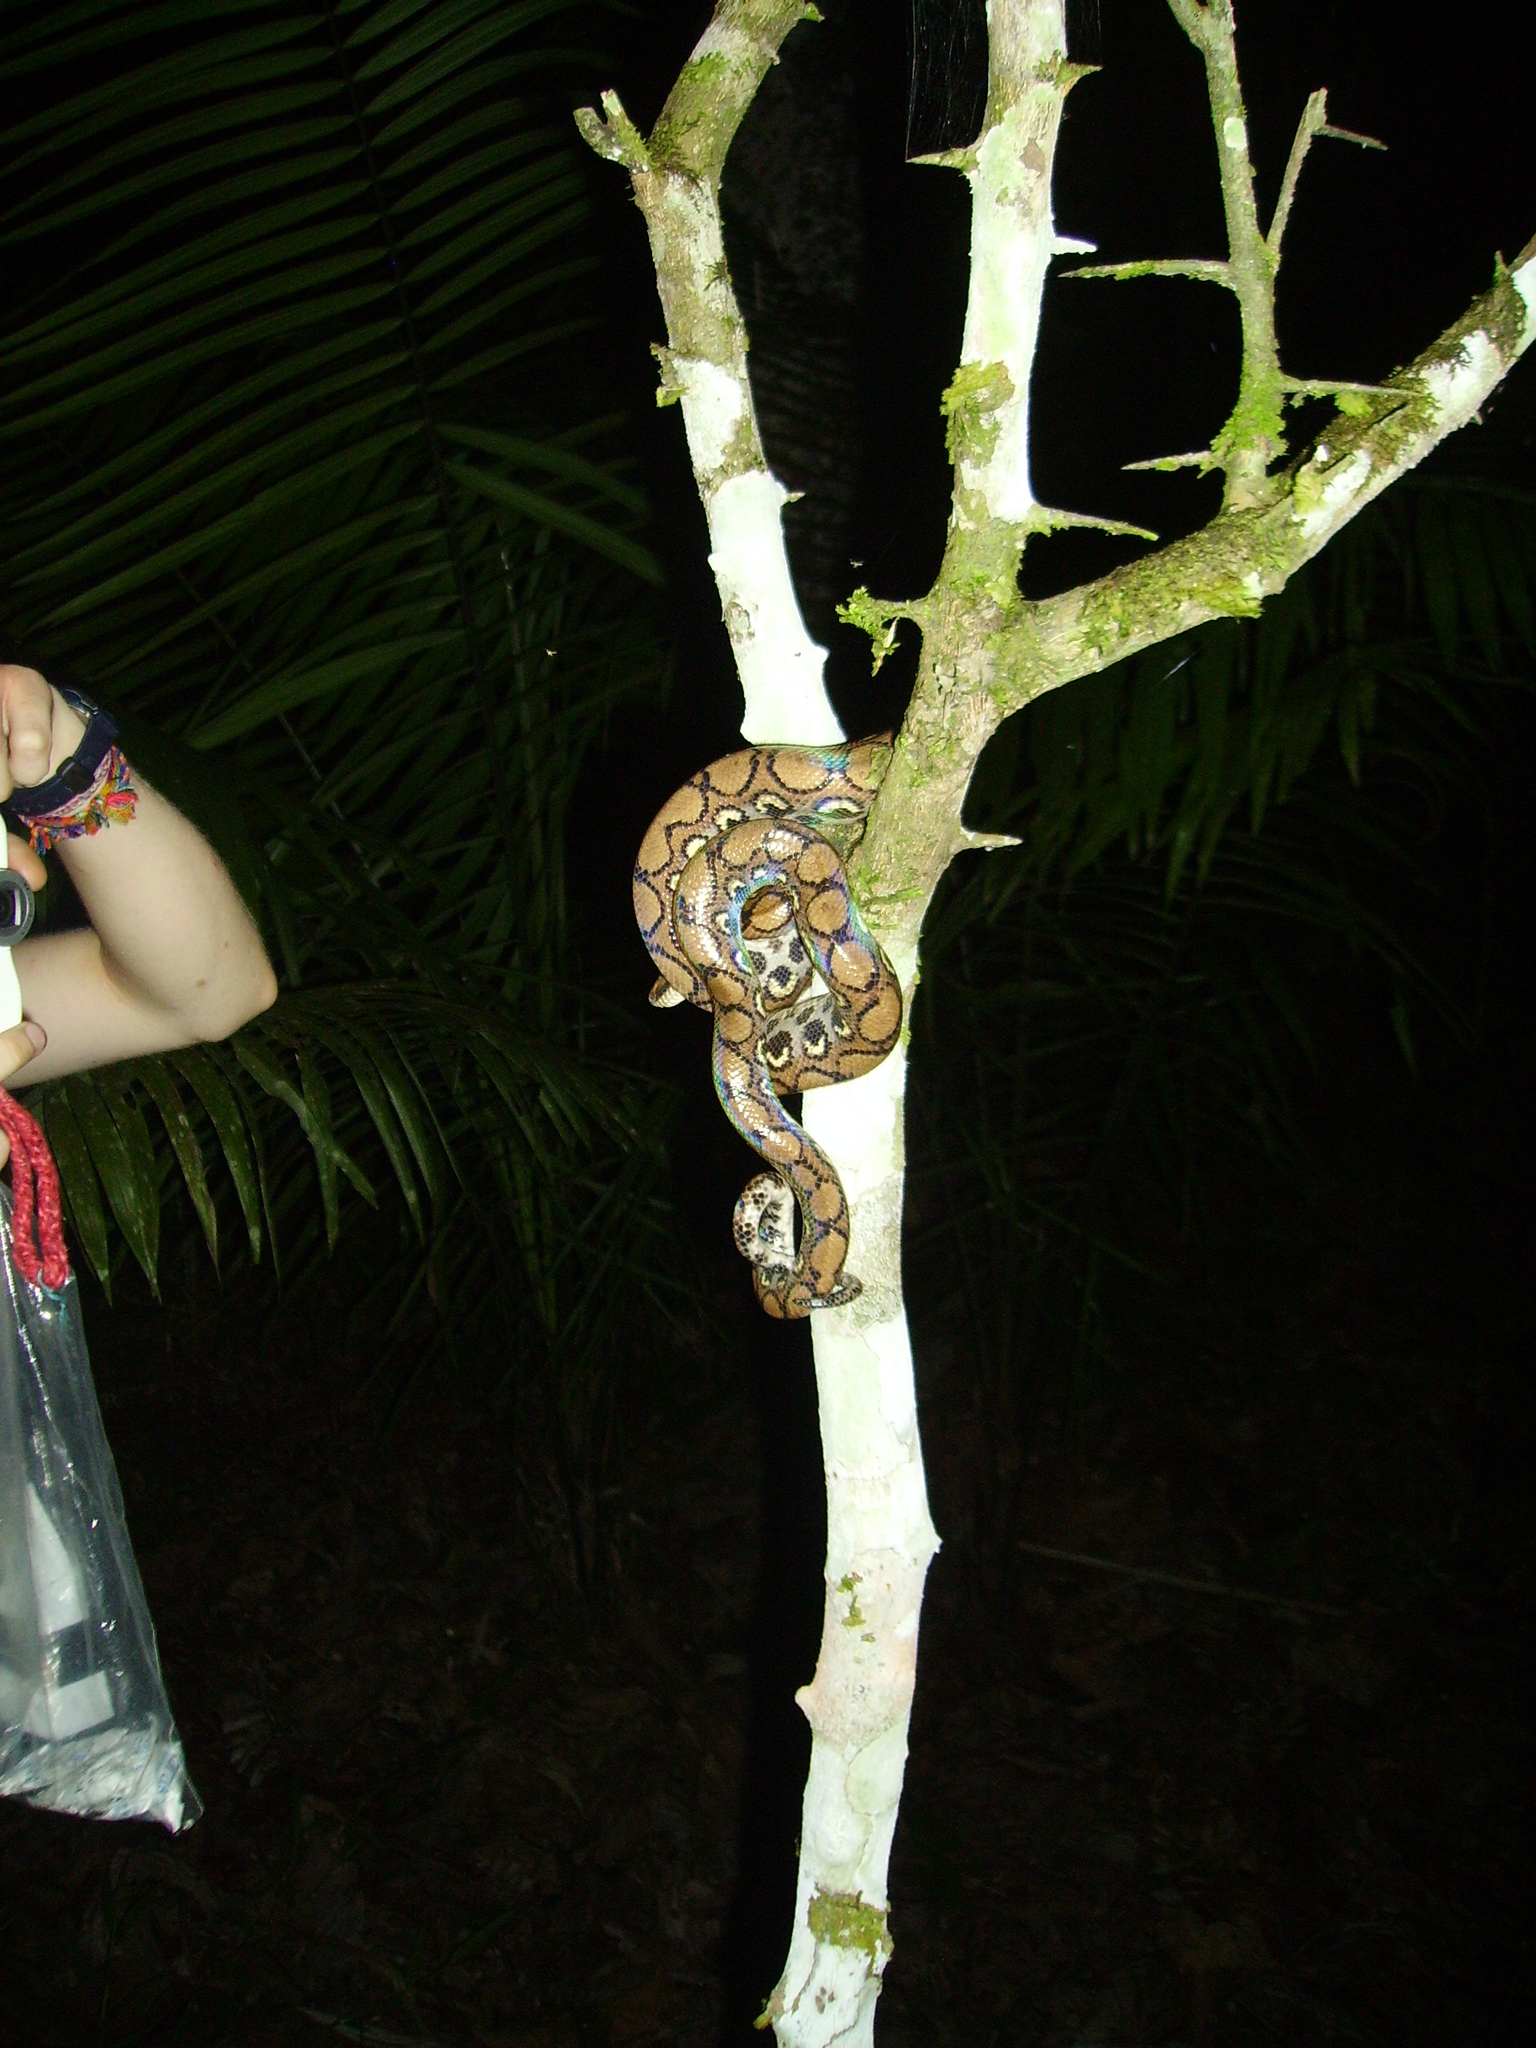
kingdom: Animalia
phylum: Chordata
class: Squamata
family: Boidae
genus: Epicrates
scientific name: Epicrates cenchria
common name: Rainbow boa
